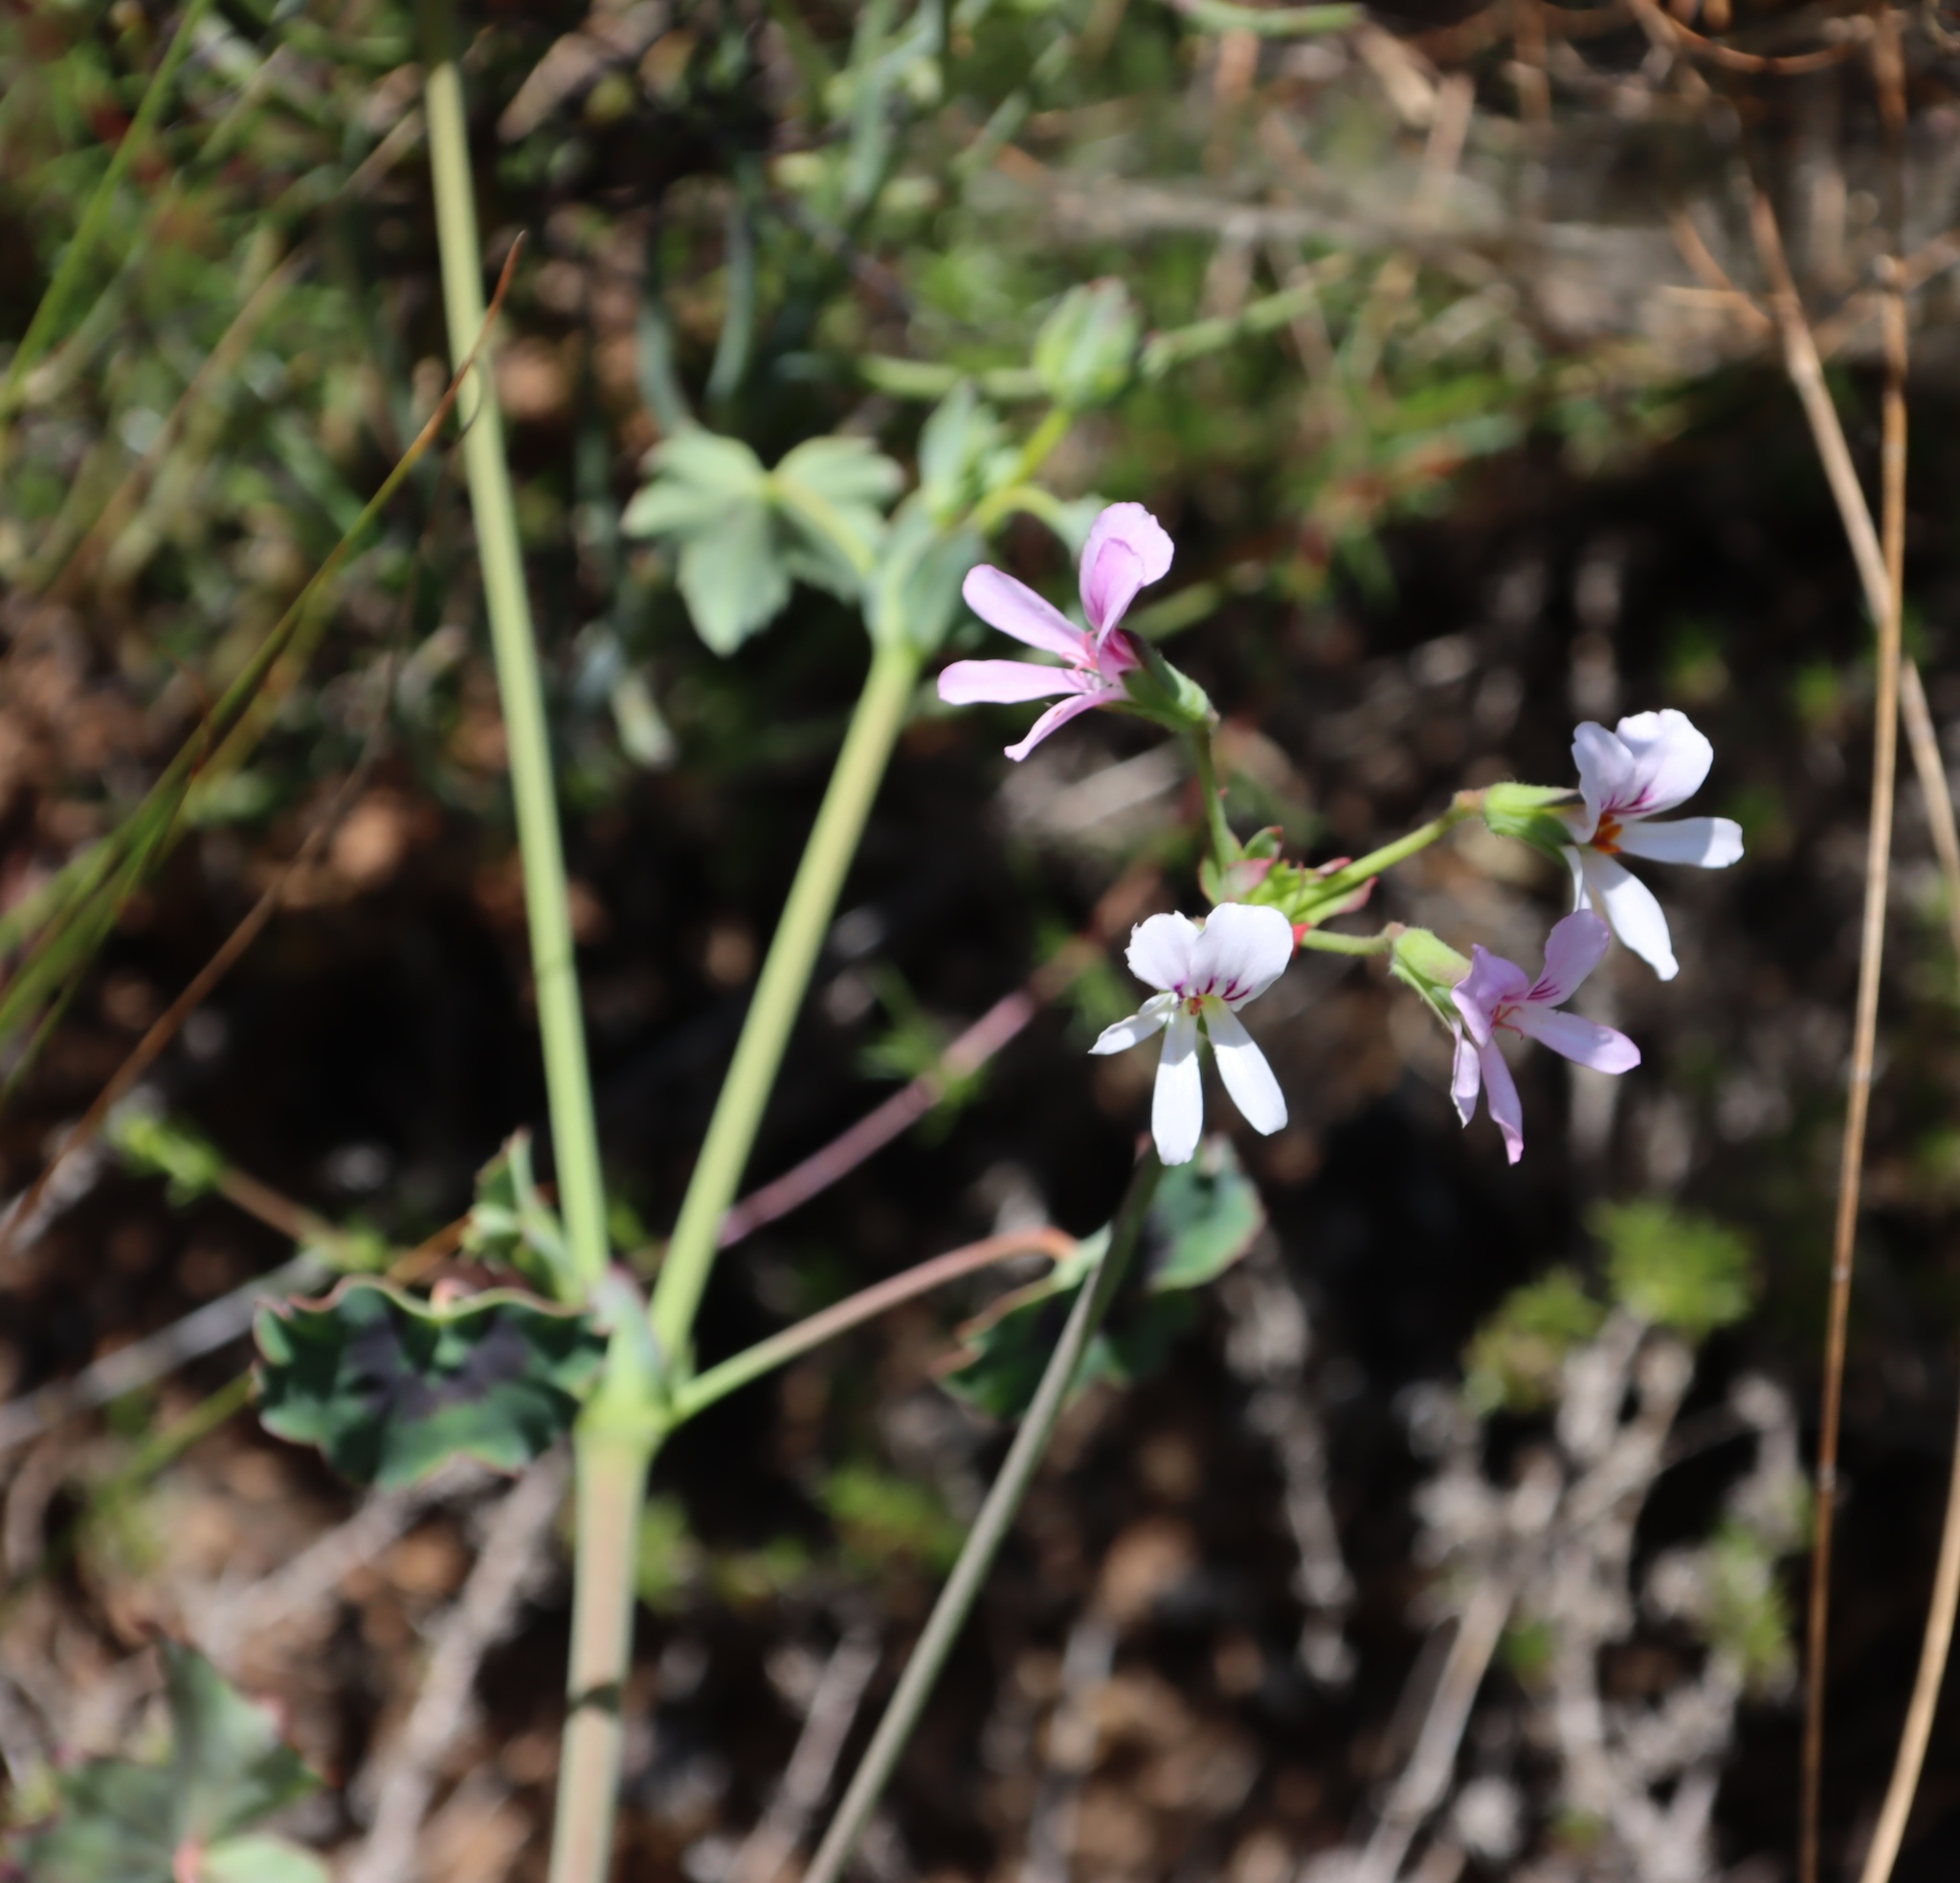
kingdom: Plantae
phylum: Tracheophyta
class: Magnoliopsida
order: Geraniales
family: Geraniaceae
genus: Pelargonium
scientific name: Pelargonium tabulare
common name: Table mountain pelargonium
